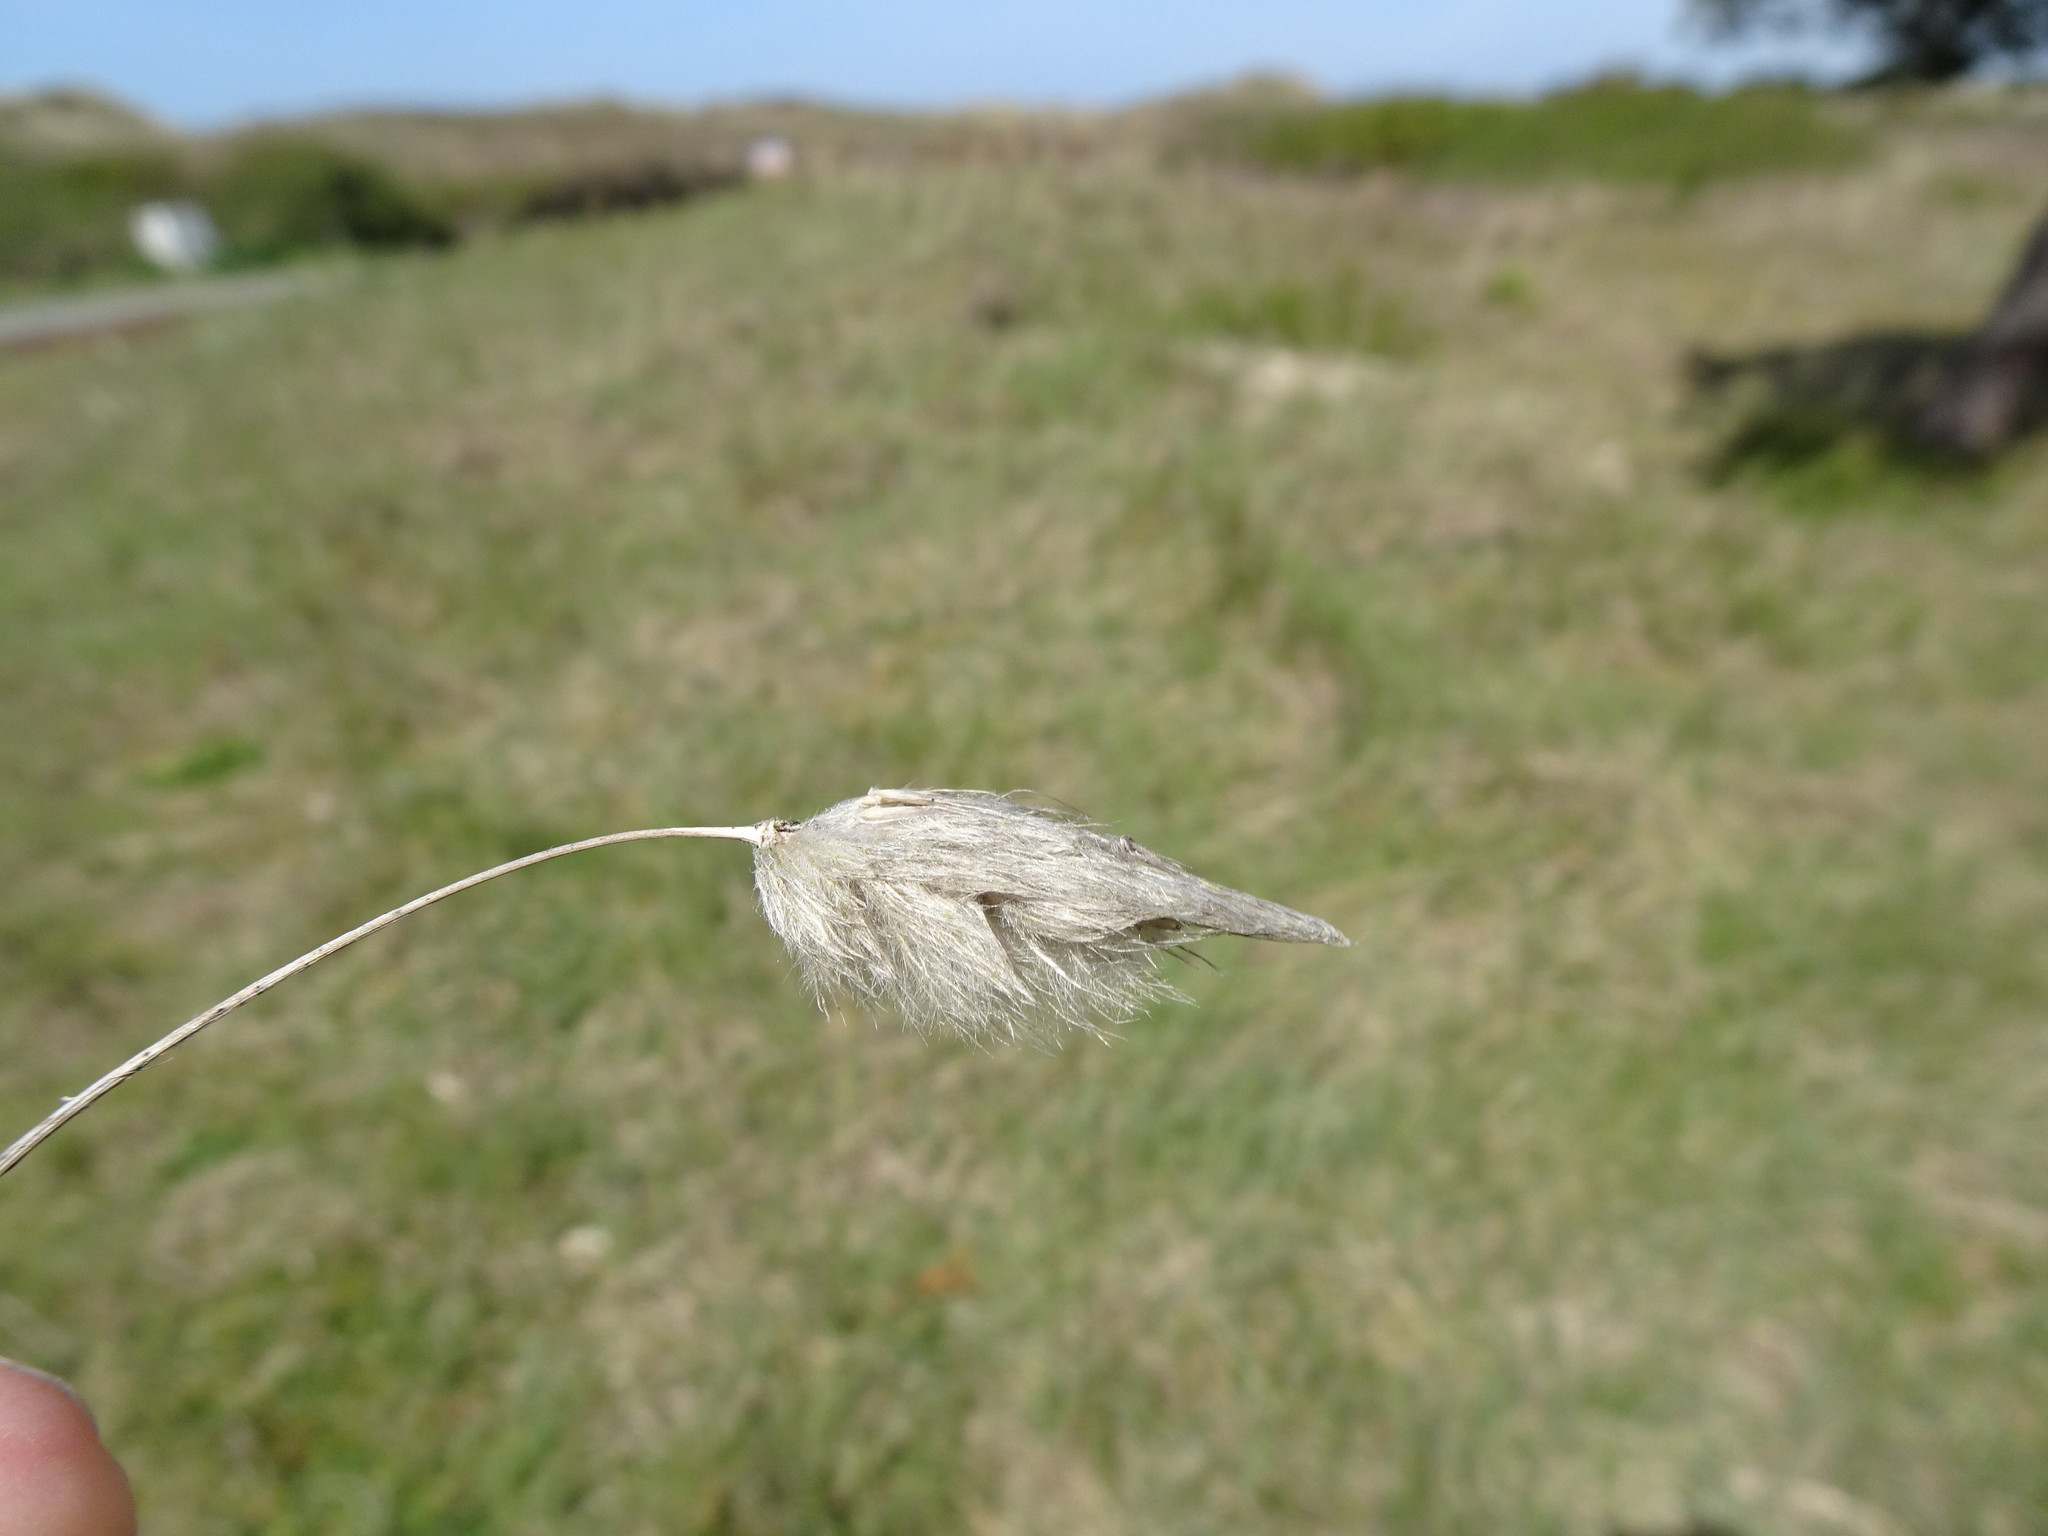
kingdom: Plantae
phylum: Tracheophyta
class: Liliopsida
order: Poales
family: Poaceae
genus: Lagurus
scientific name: Lagurus ovatus
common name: Hare's-tail
